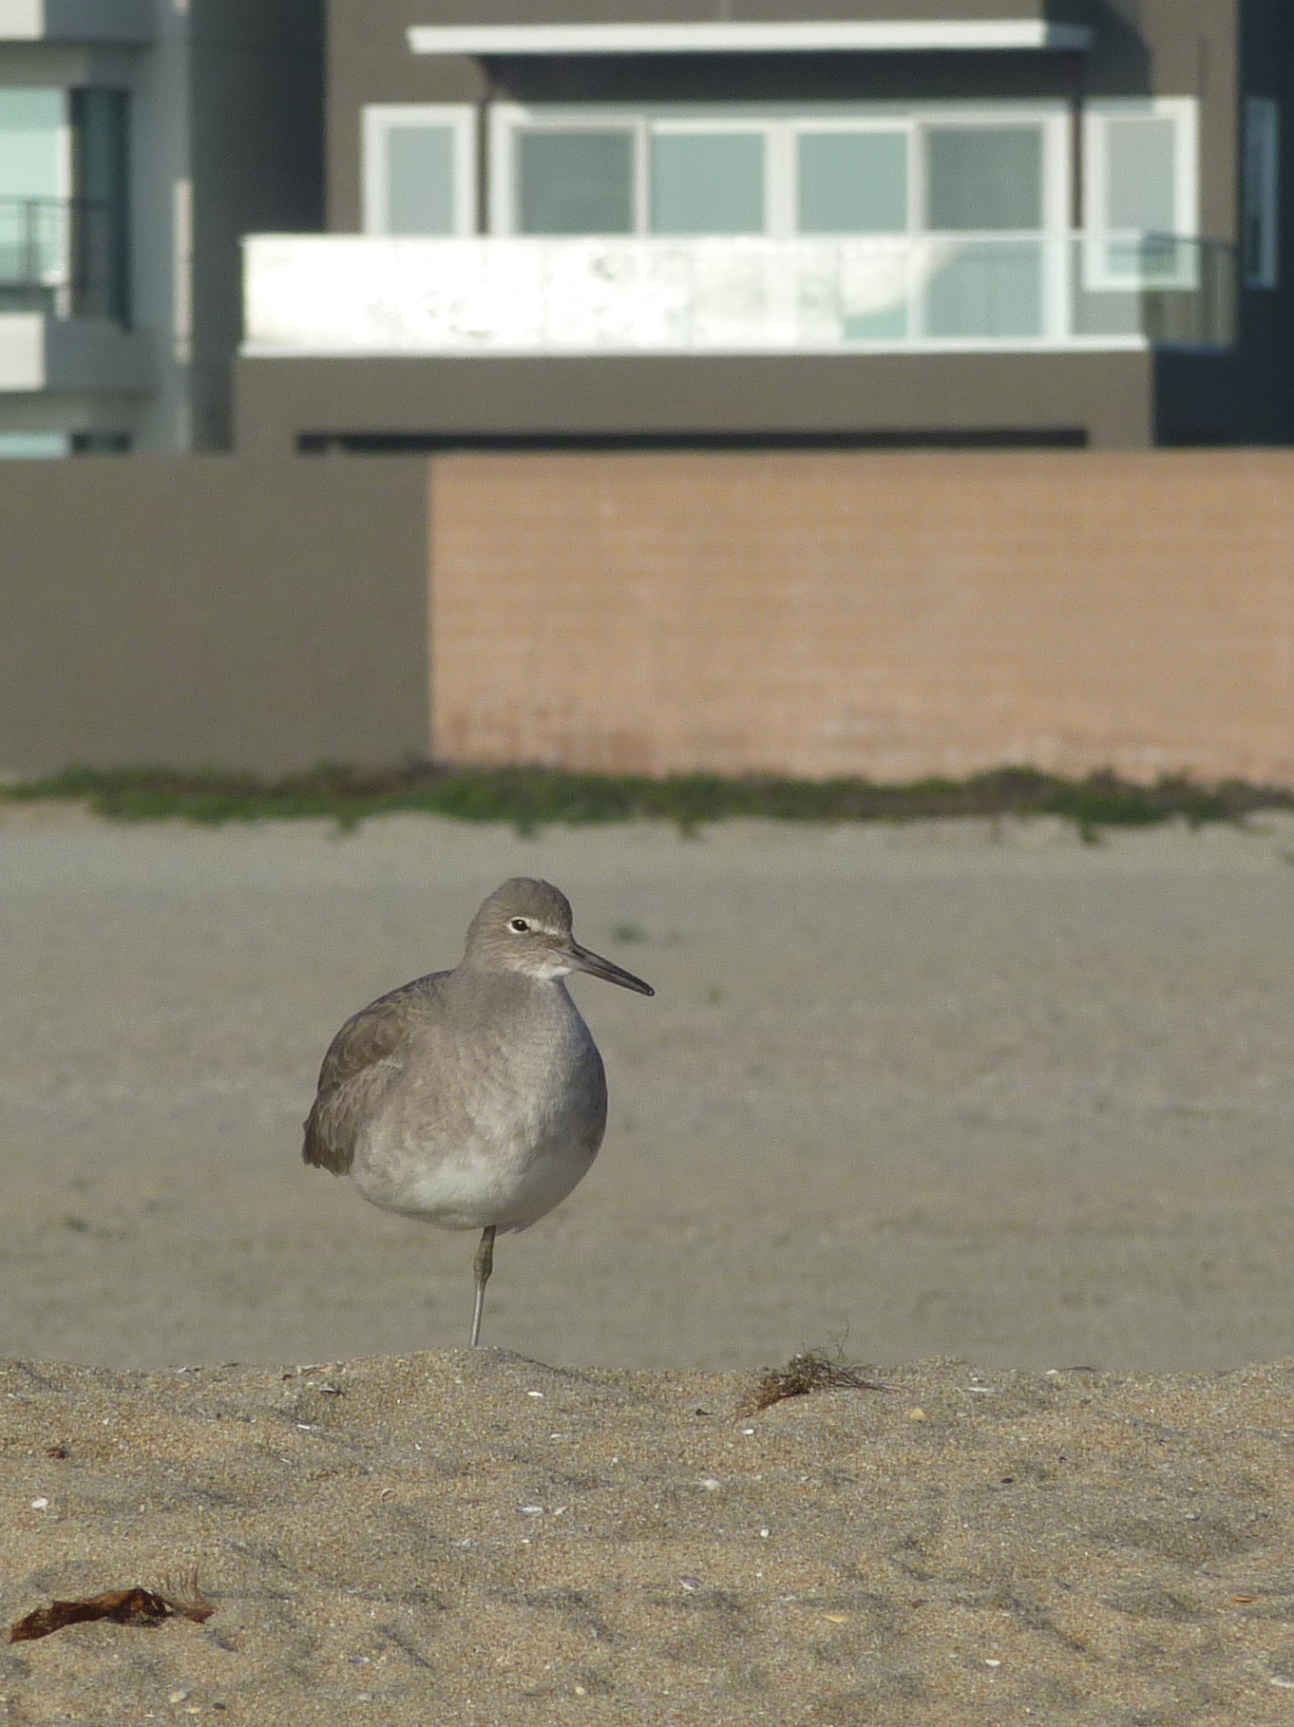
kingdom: Animalia
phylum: Chordata
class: Aves
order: Charadriiformes
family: Scolopacidae
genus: Tringa
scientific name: Tringa semipalmata
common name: Willet
